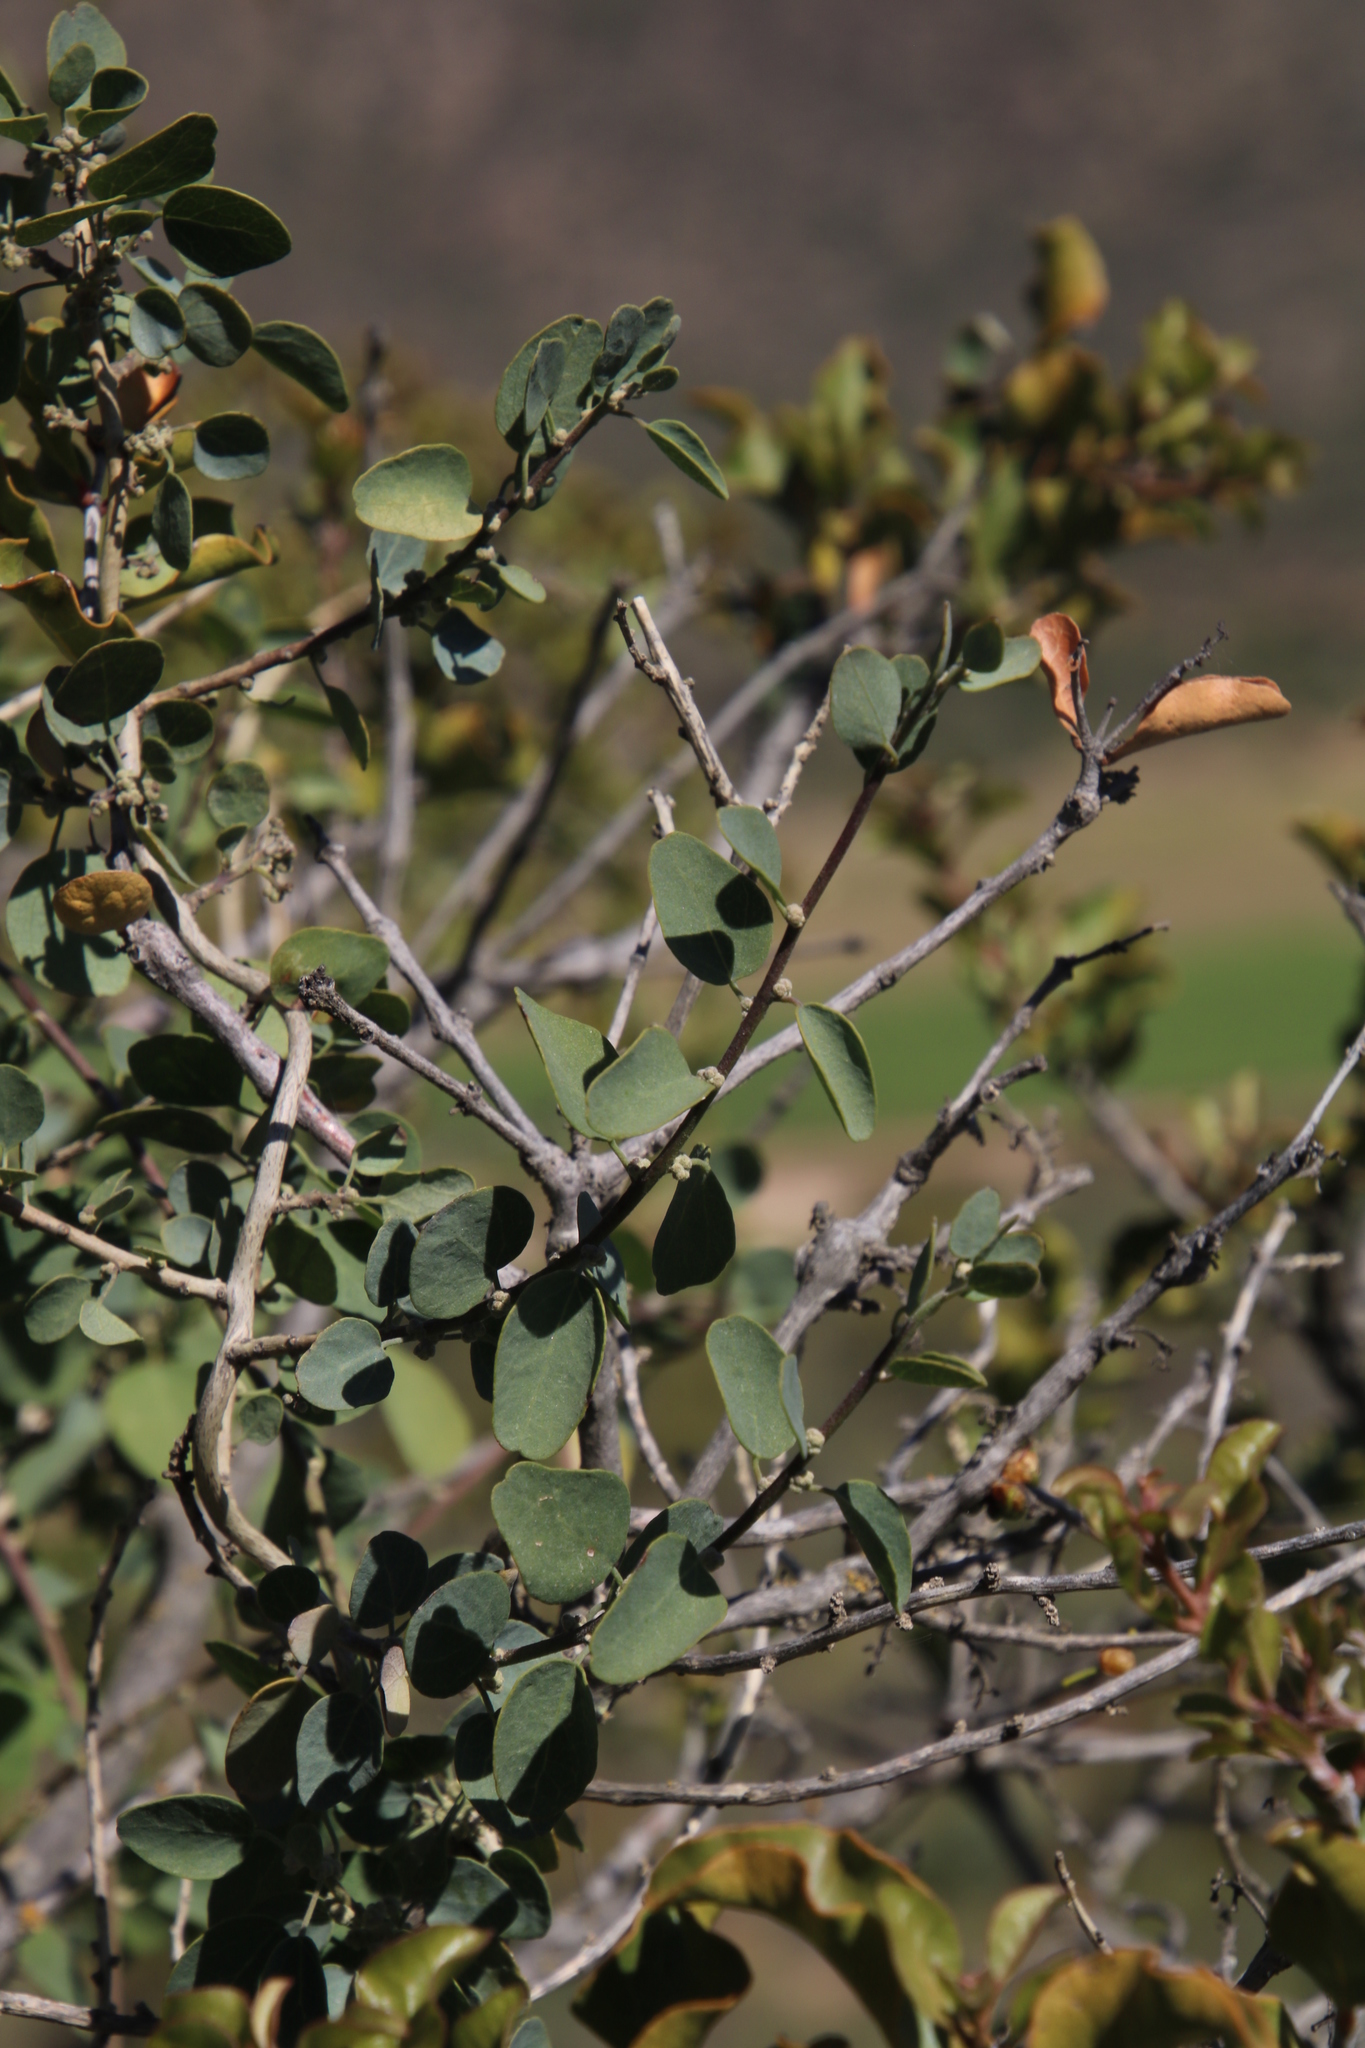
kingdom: Plantae
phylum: Tracheophyta
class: Magnoliopsida
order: Ranunculales
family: Menispermaceae
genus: Cissampelos
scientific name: Cissampelos capensis
